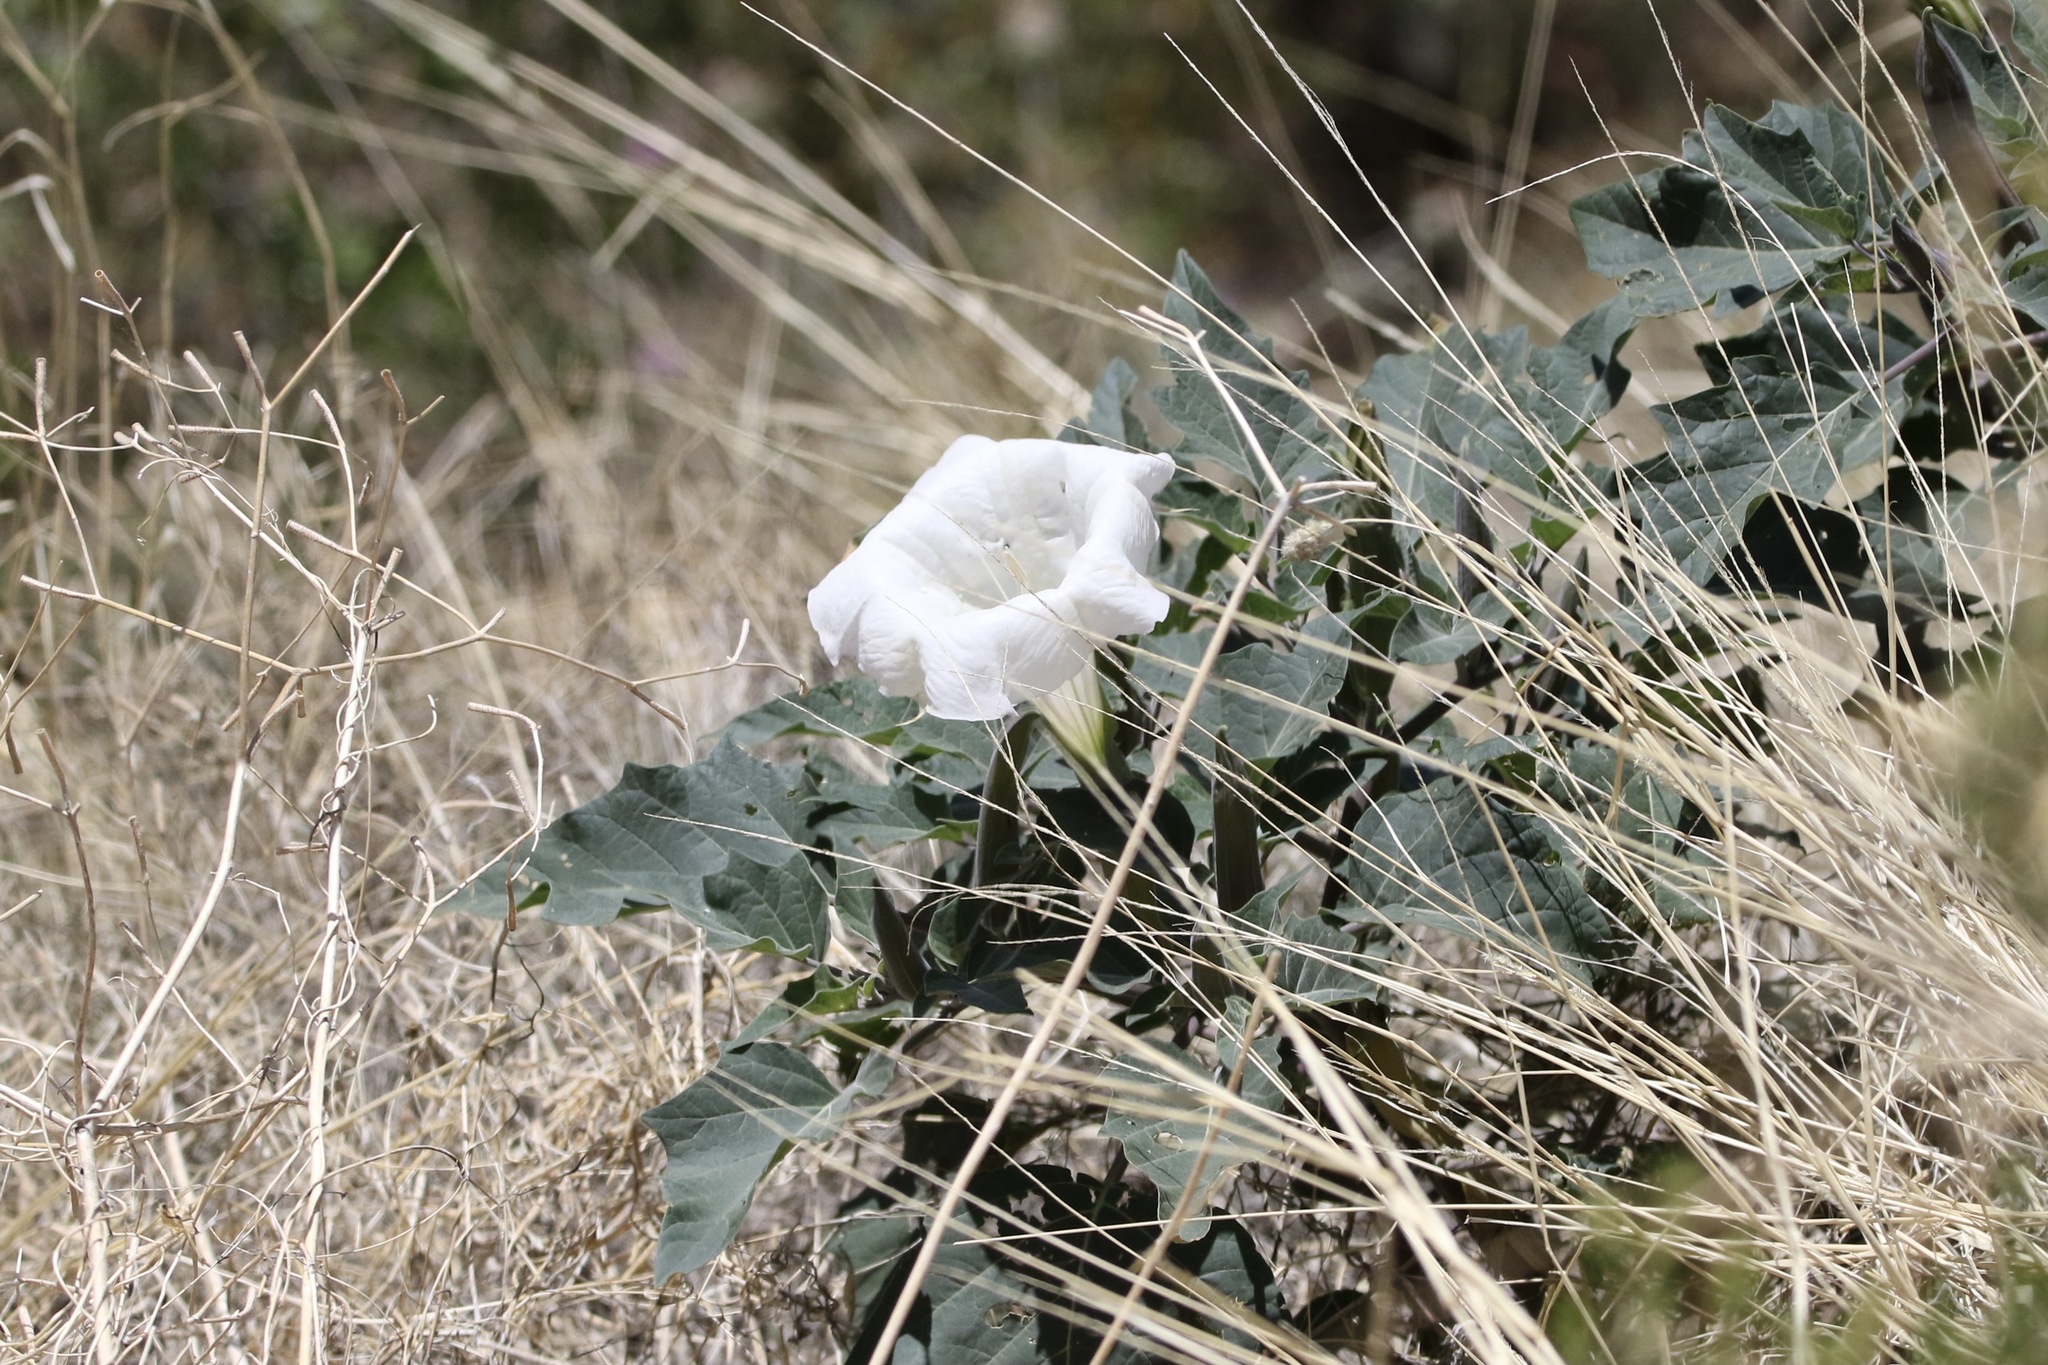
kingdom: Plantae
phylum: Tracheophyta
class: Magnoliopsida
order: Solanales
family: Solanaceae
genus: Datura
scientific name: Datura wrightii
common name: Sacred thorn-apple
